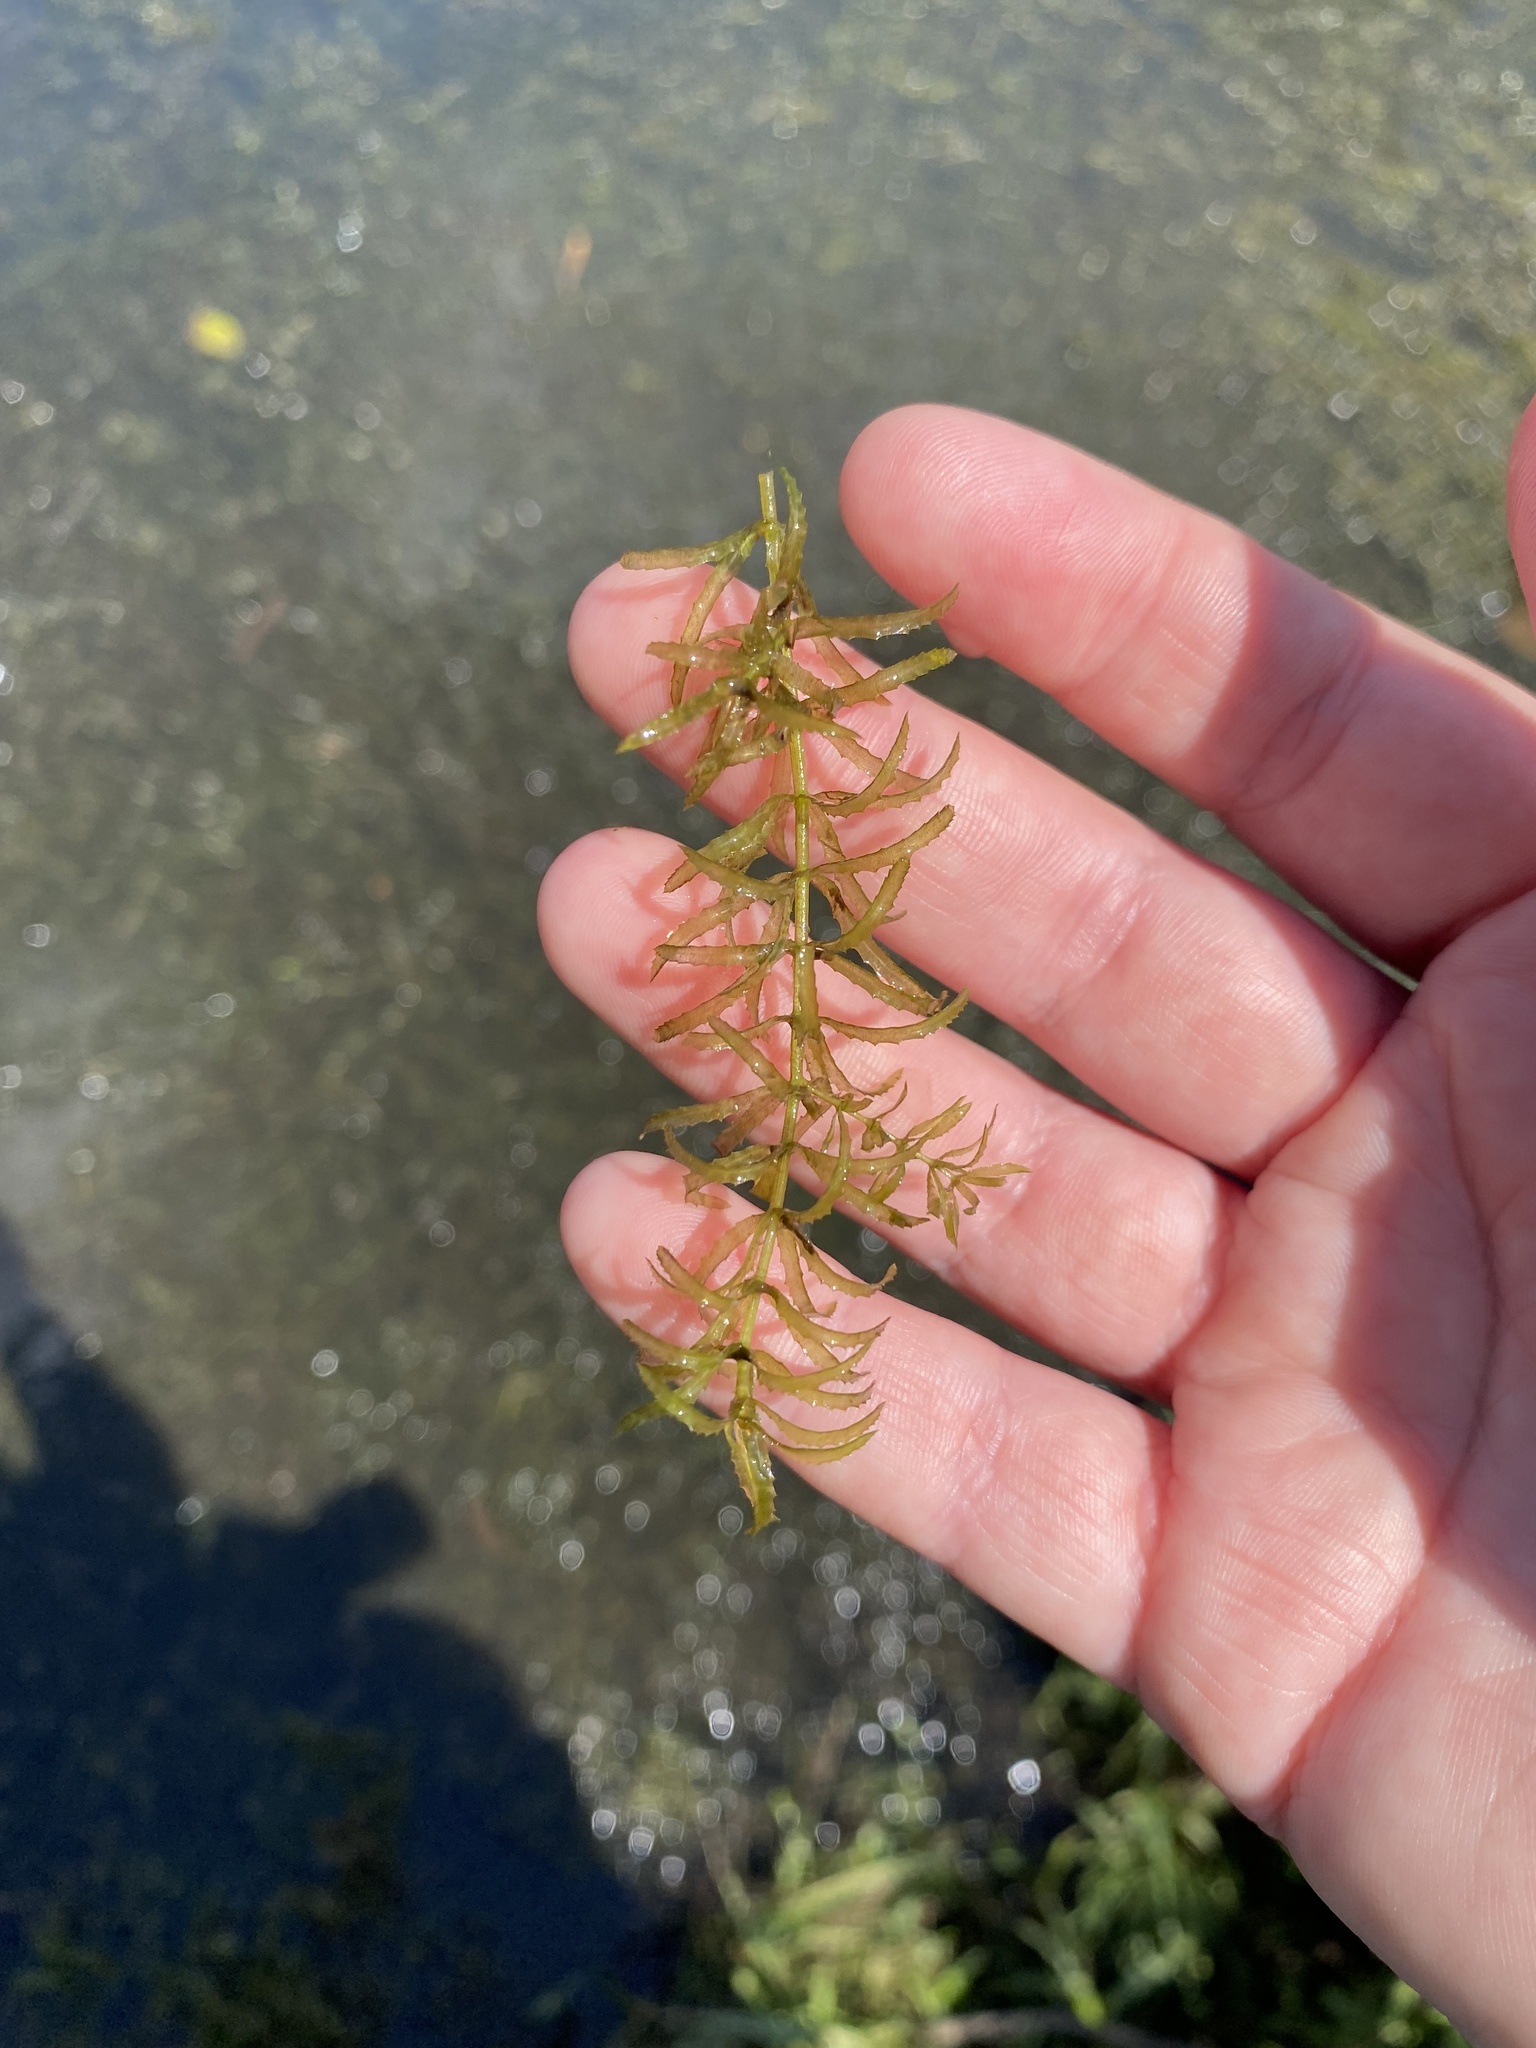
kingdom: Plantae
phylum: Tracheophyta
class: Liliopsida
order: Alismatales
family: Hydrocharitaceae
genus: Hydrilla
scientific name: Hydrilla verticillata
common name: Florida-elodea
